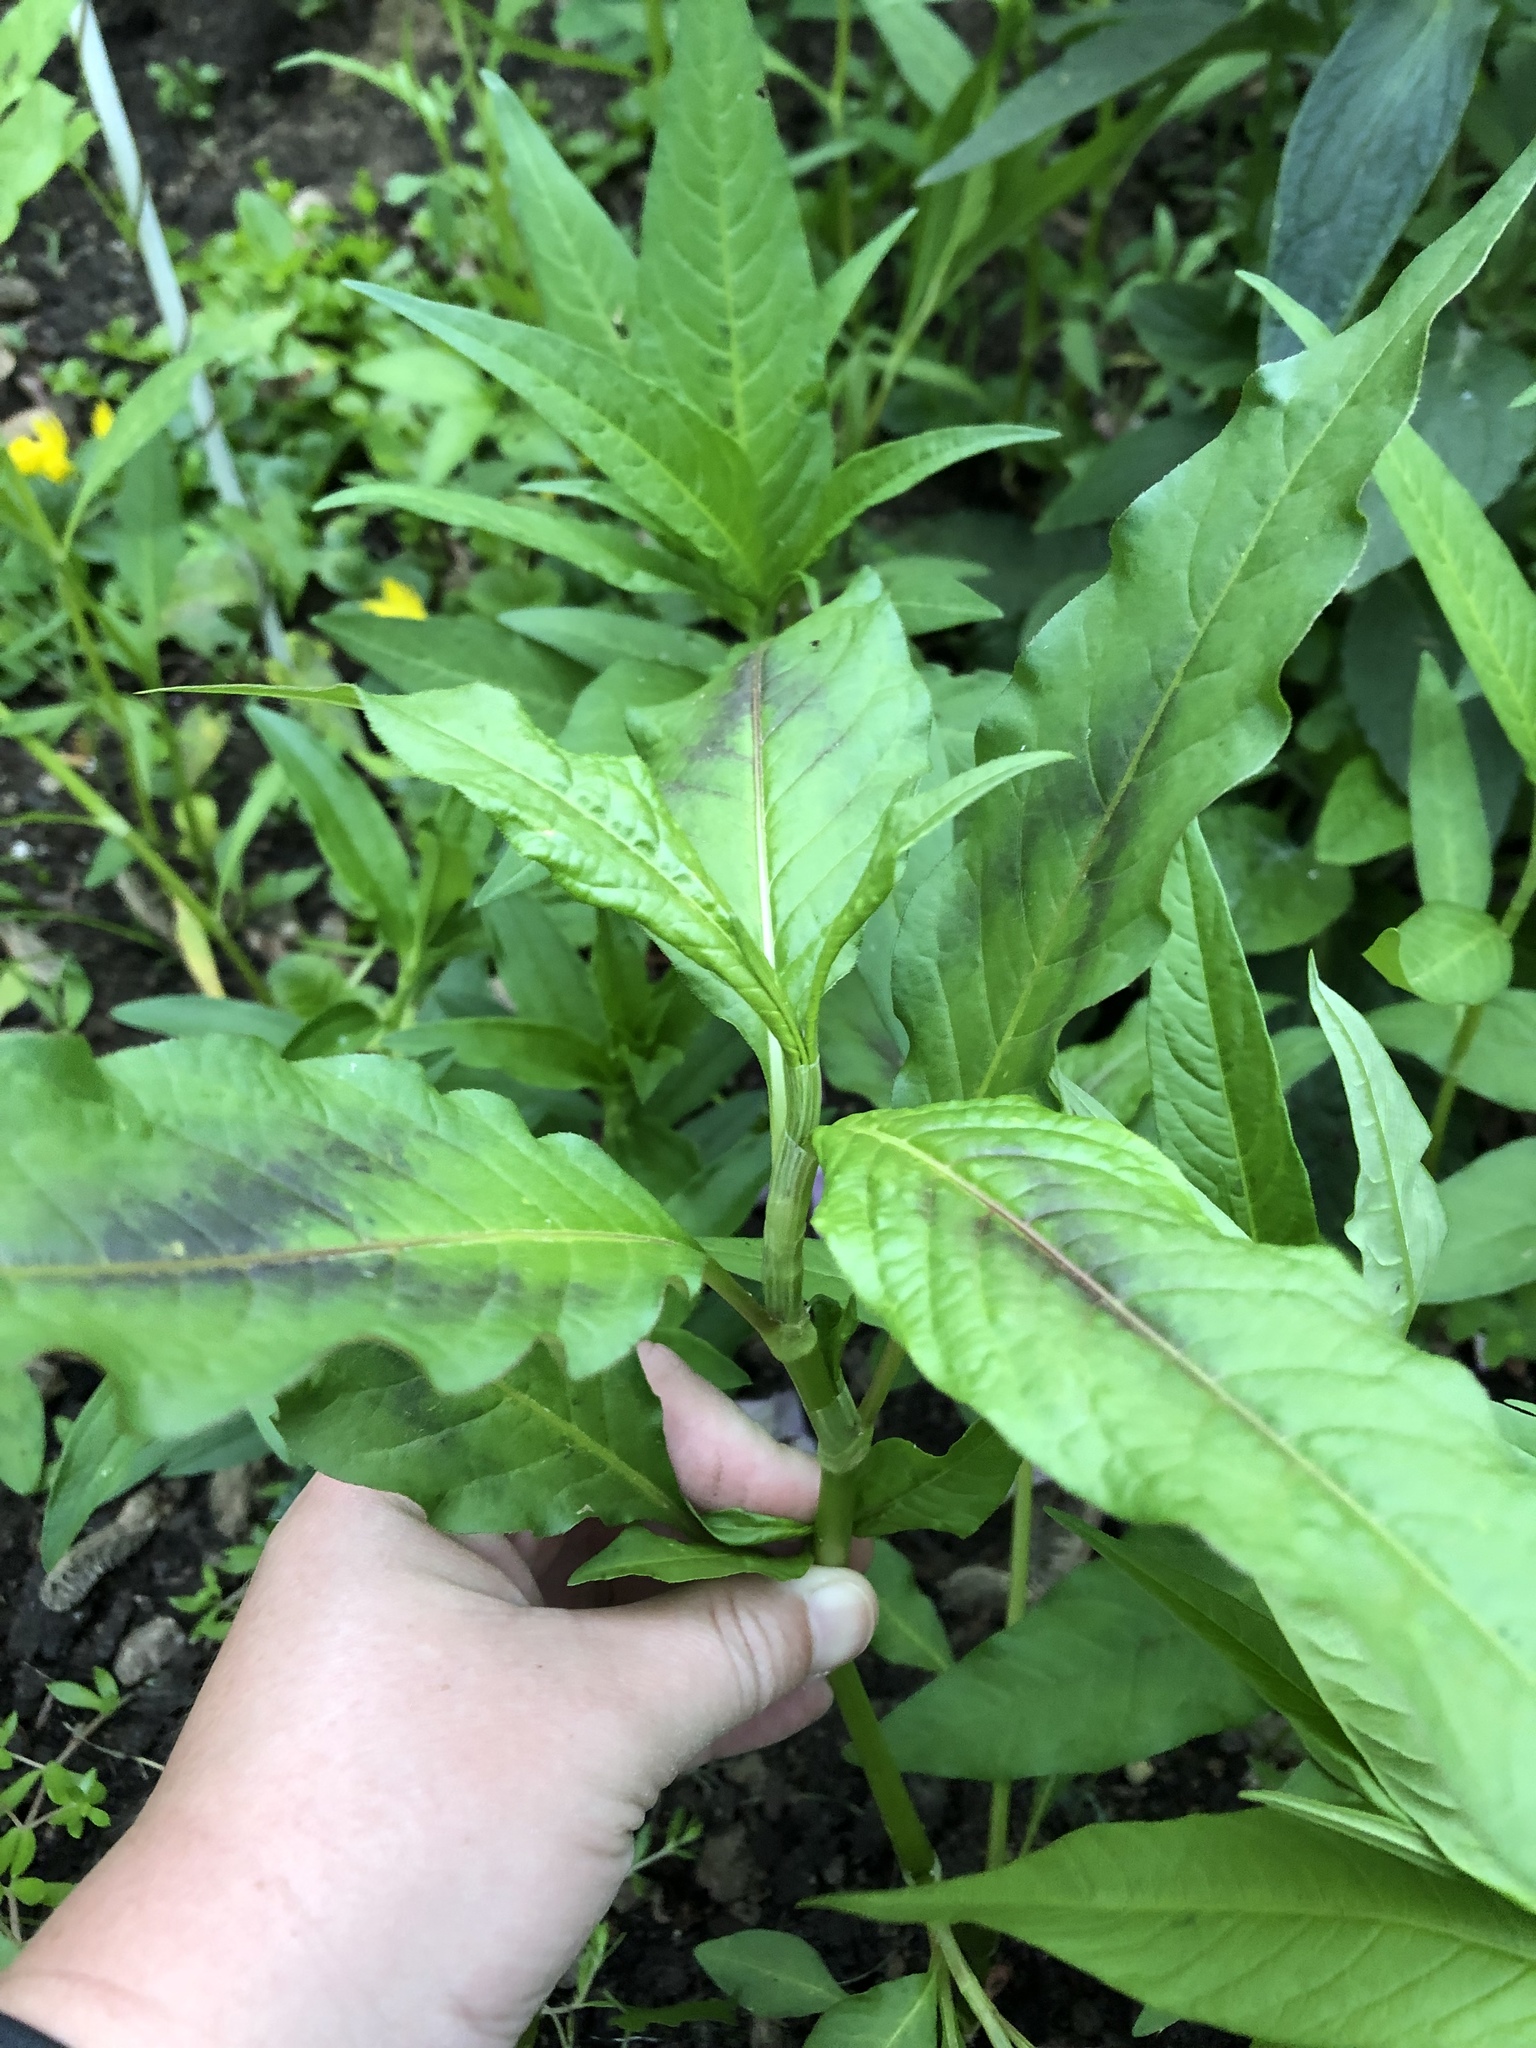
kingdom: Plantae
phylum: Tracheophyta
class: Magnoliopsida
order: Caryophyllales
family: Polygonaceae
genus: Persicaria
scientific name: Persicaria maculosa
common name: Redshank
